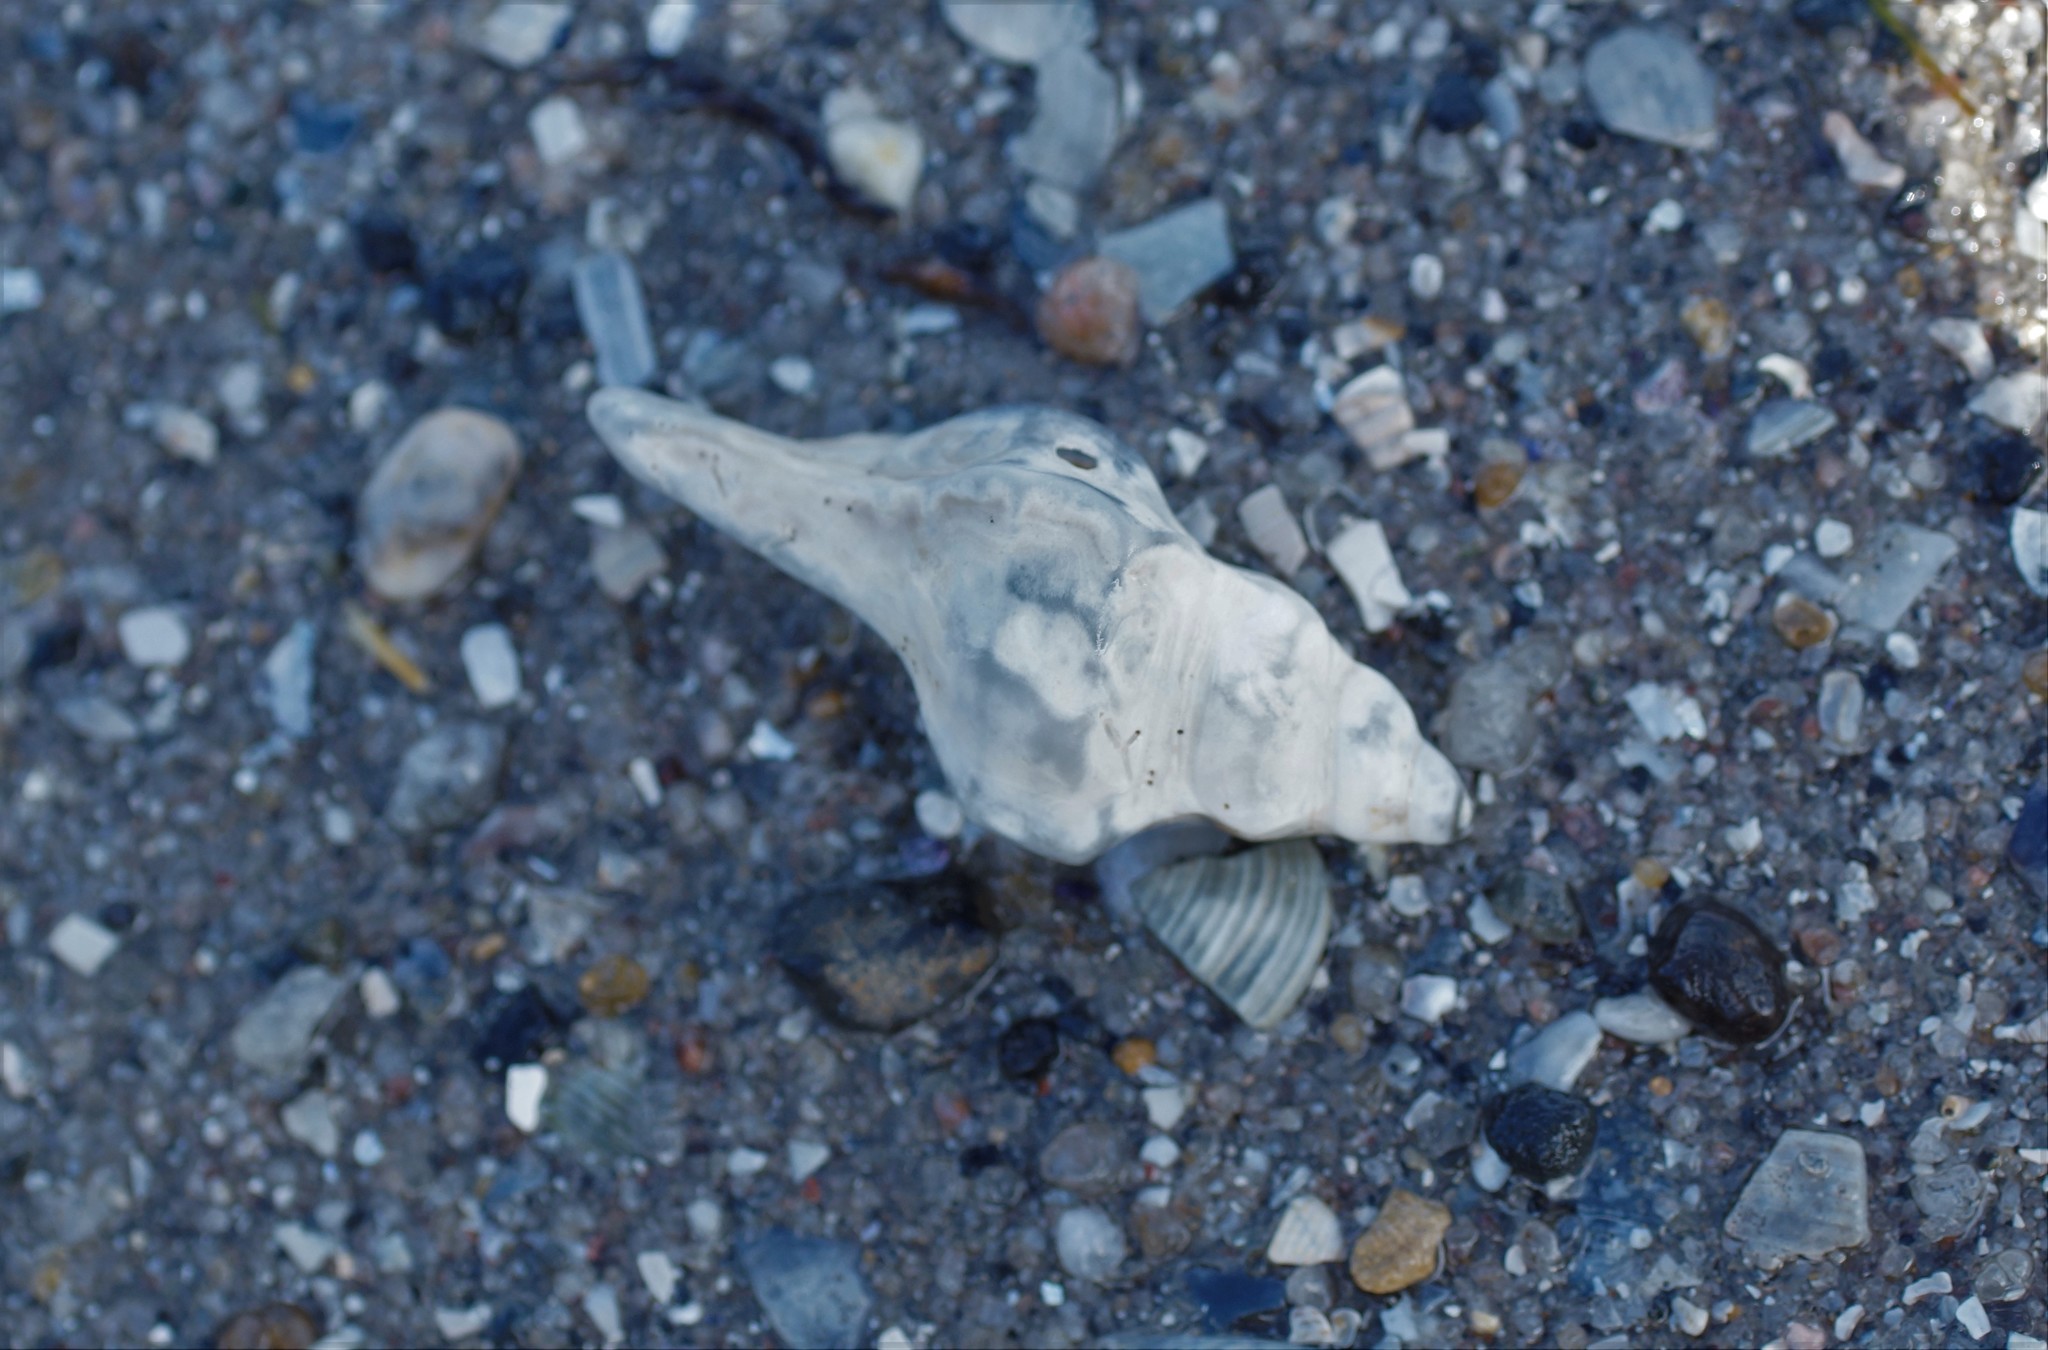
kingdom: Animalia
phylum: Mollusca
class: Gastropoda
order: Neogastropoda
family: Muricidae
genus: Pterochelus
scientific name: Pterochelus triformis
